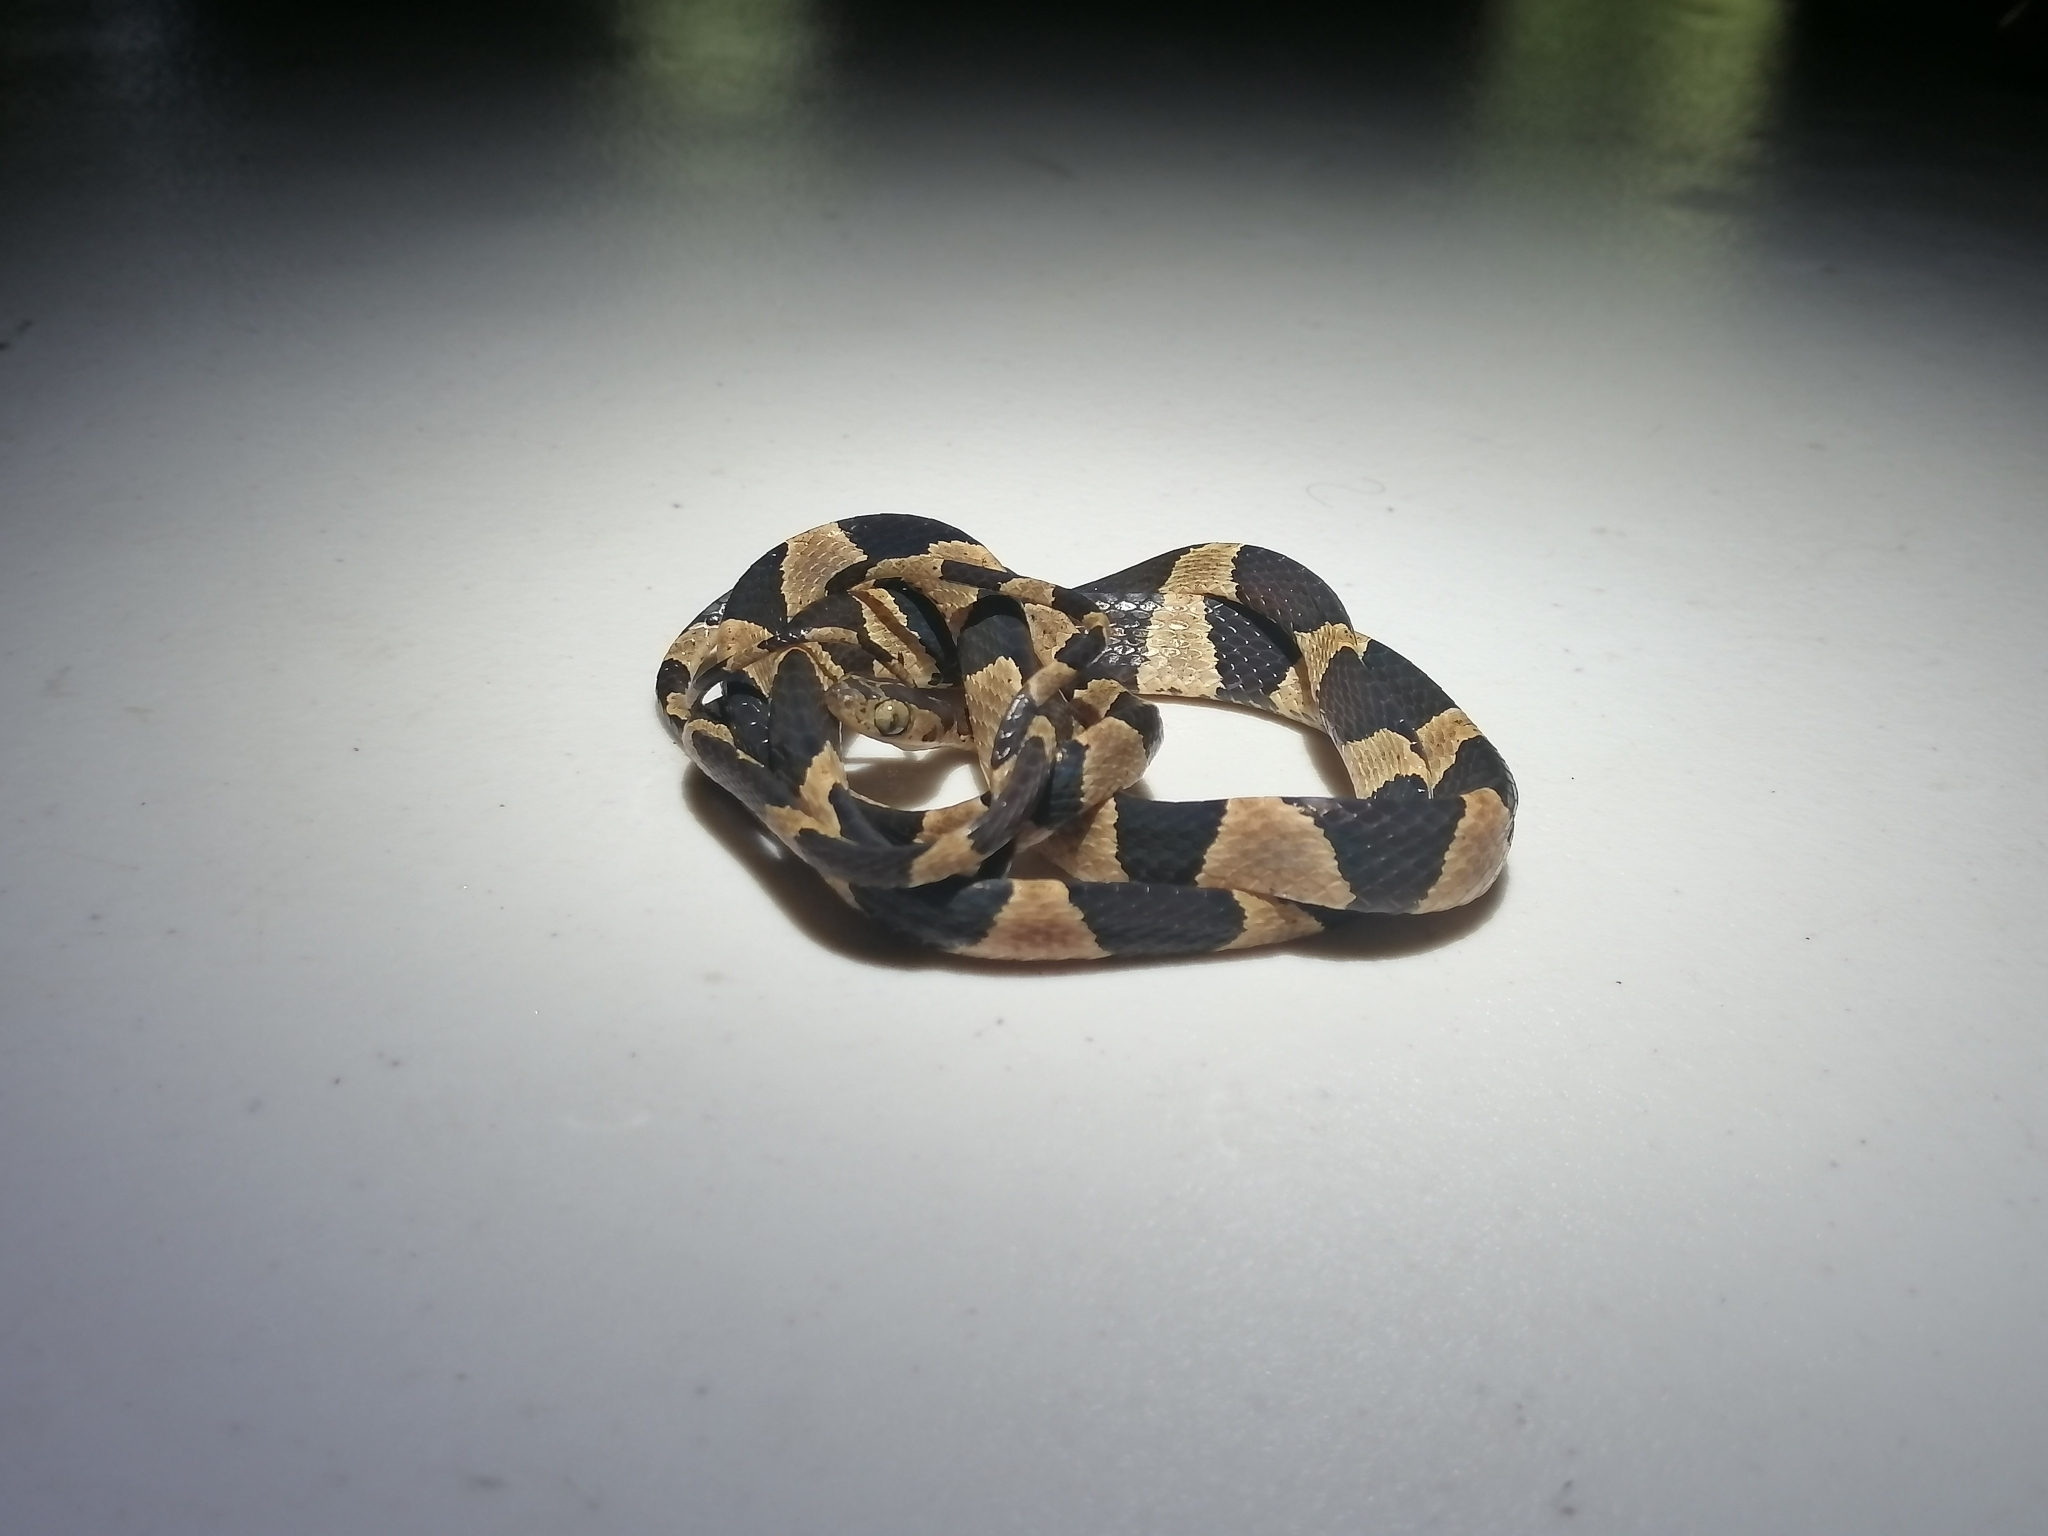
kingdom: Animalia
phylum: Chordata
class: Squamata
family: Colubridae
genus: Imantodes
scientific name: Imantodes cenchoa
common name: Blunthead tree snake
